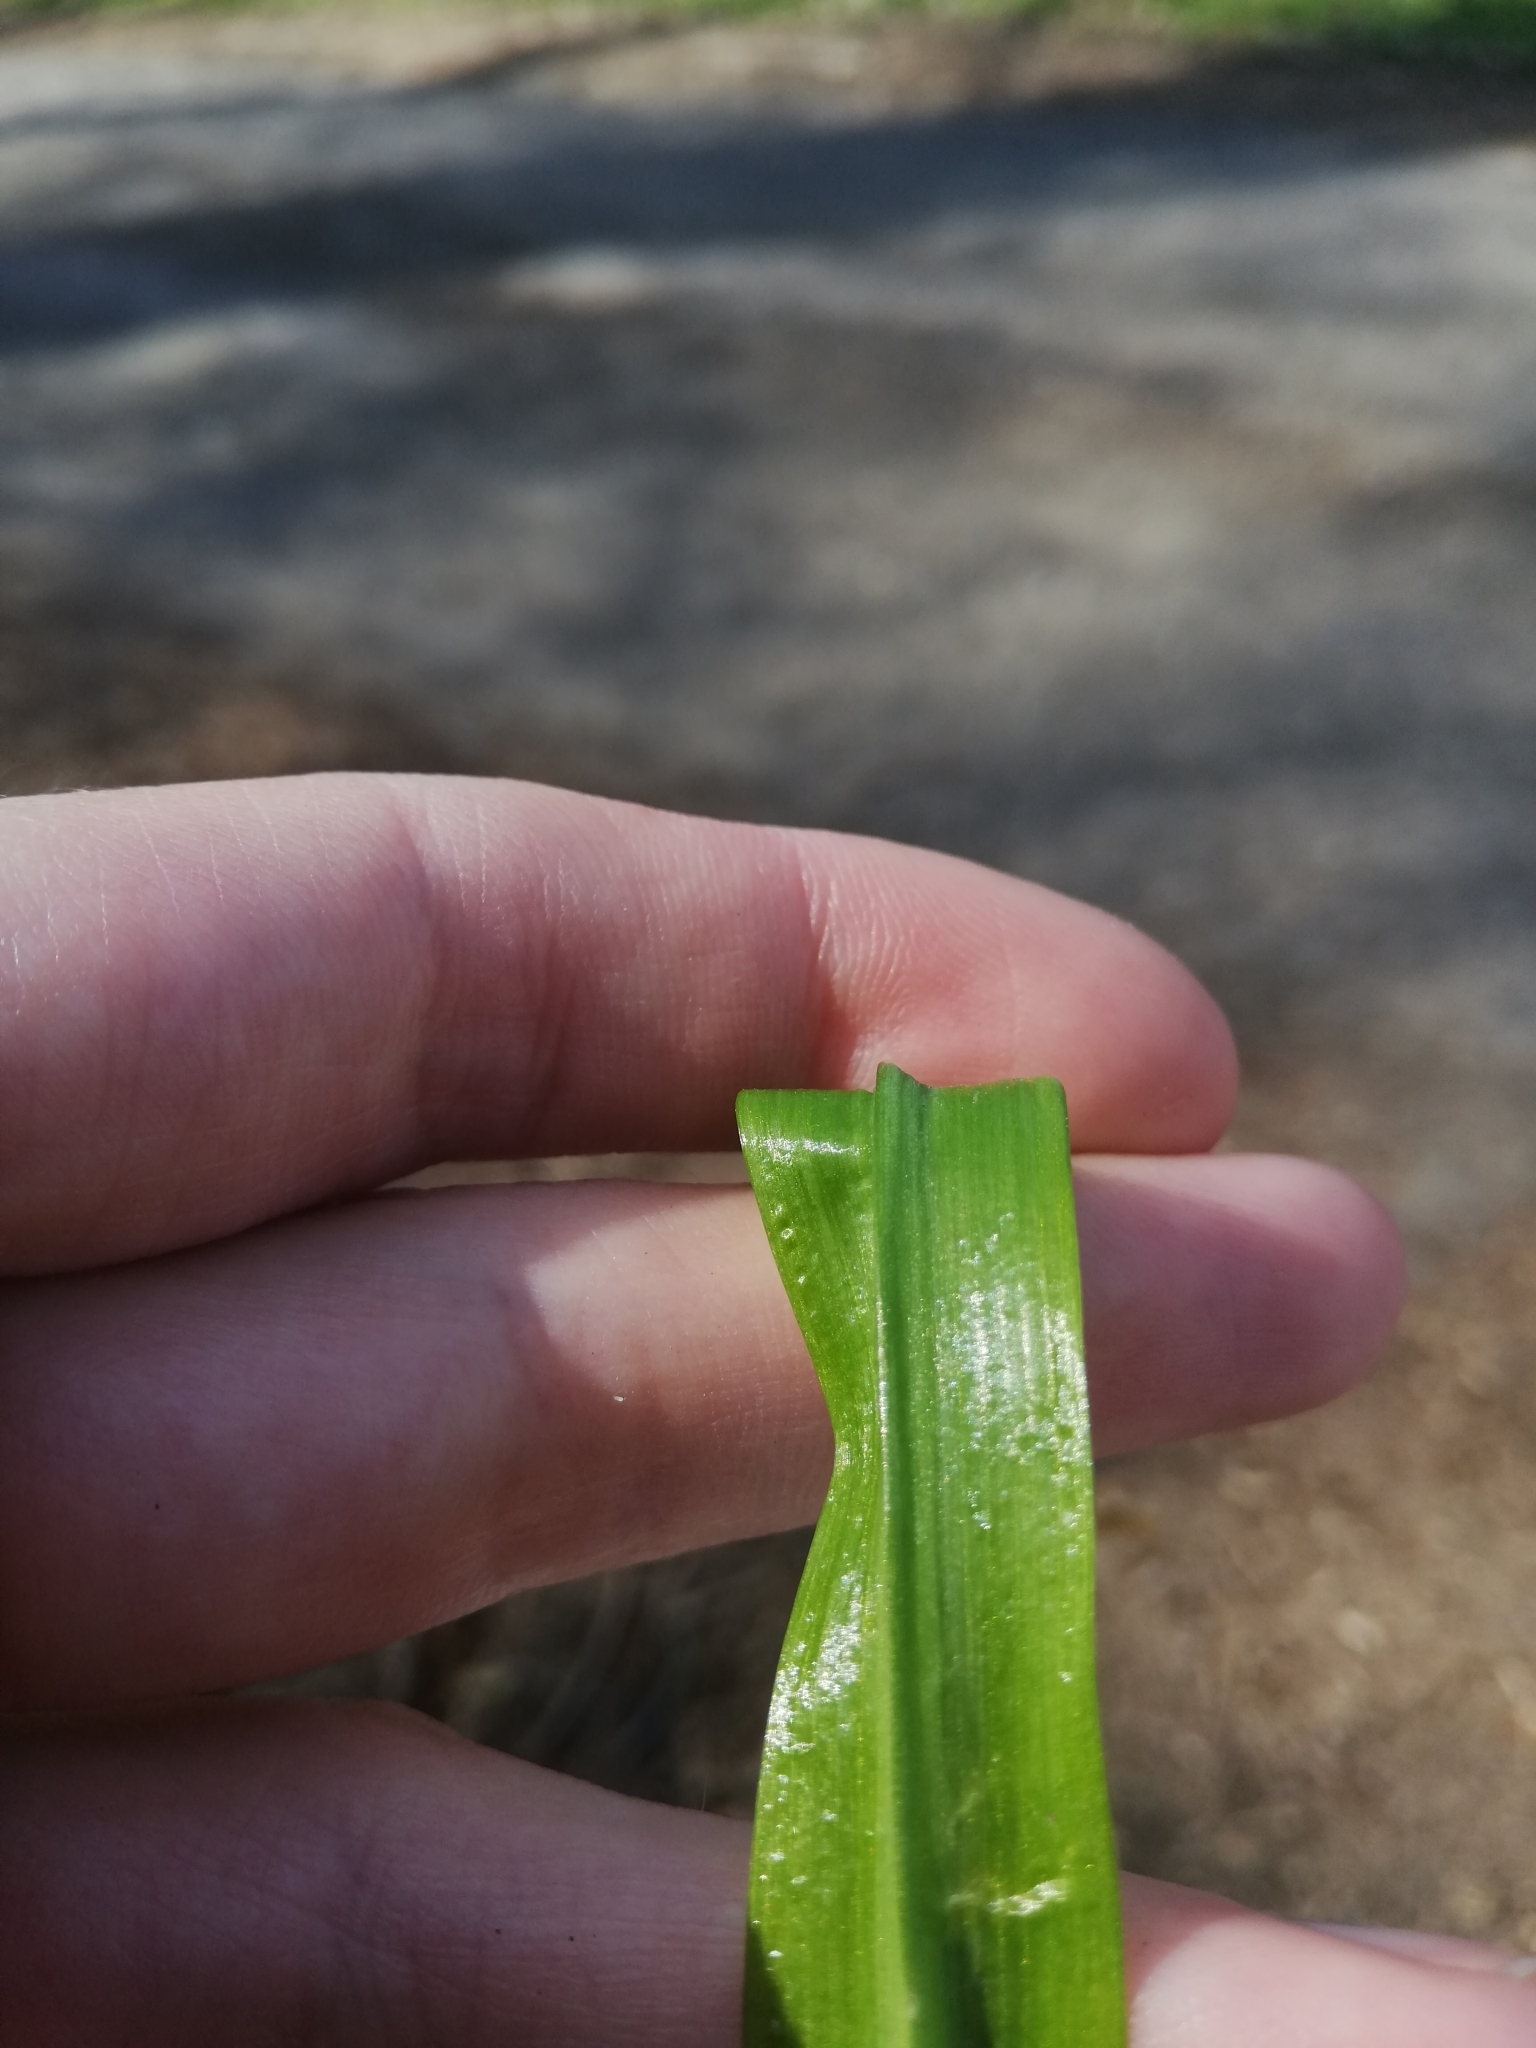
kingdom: Plantae
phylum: Tracheophyta
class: Liliopsida
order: Asparagales
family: Amaryllidaceae
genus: Allium
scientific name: Allium paradoxum
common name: Few-flowered garlic
